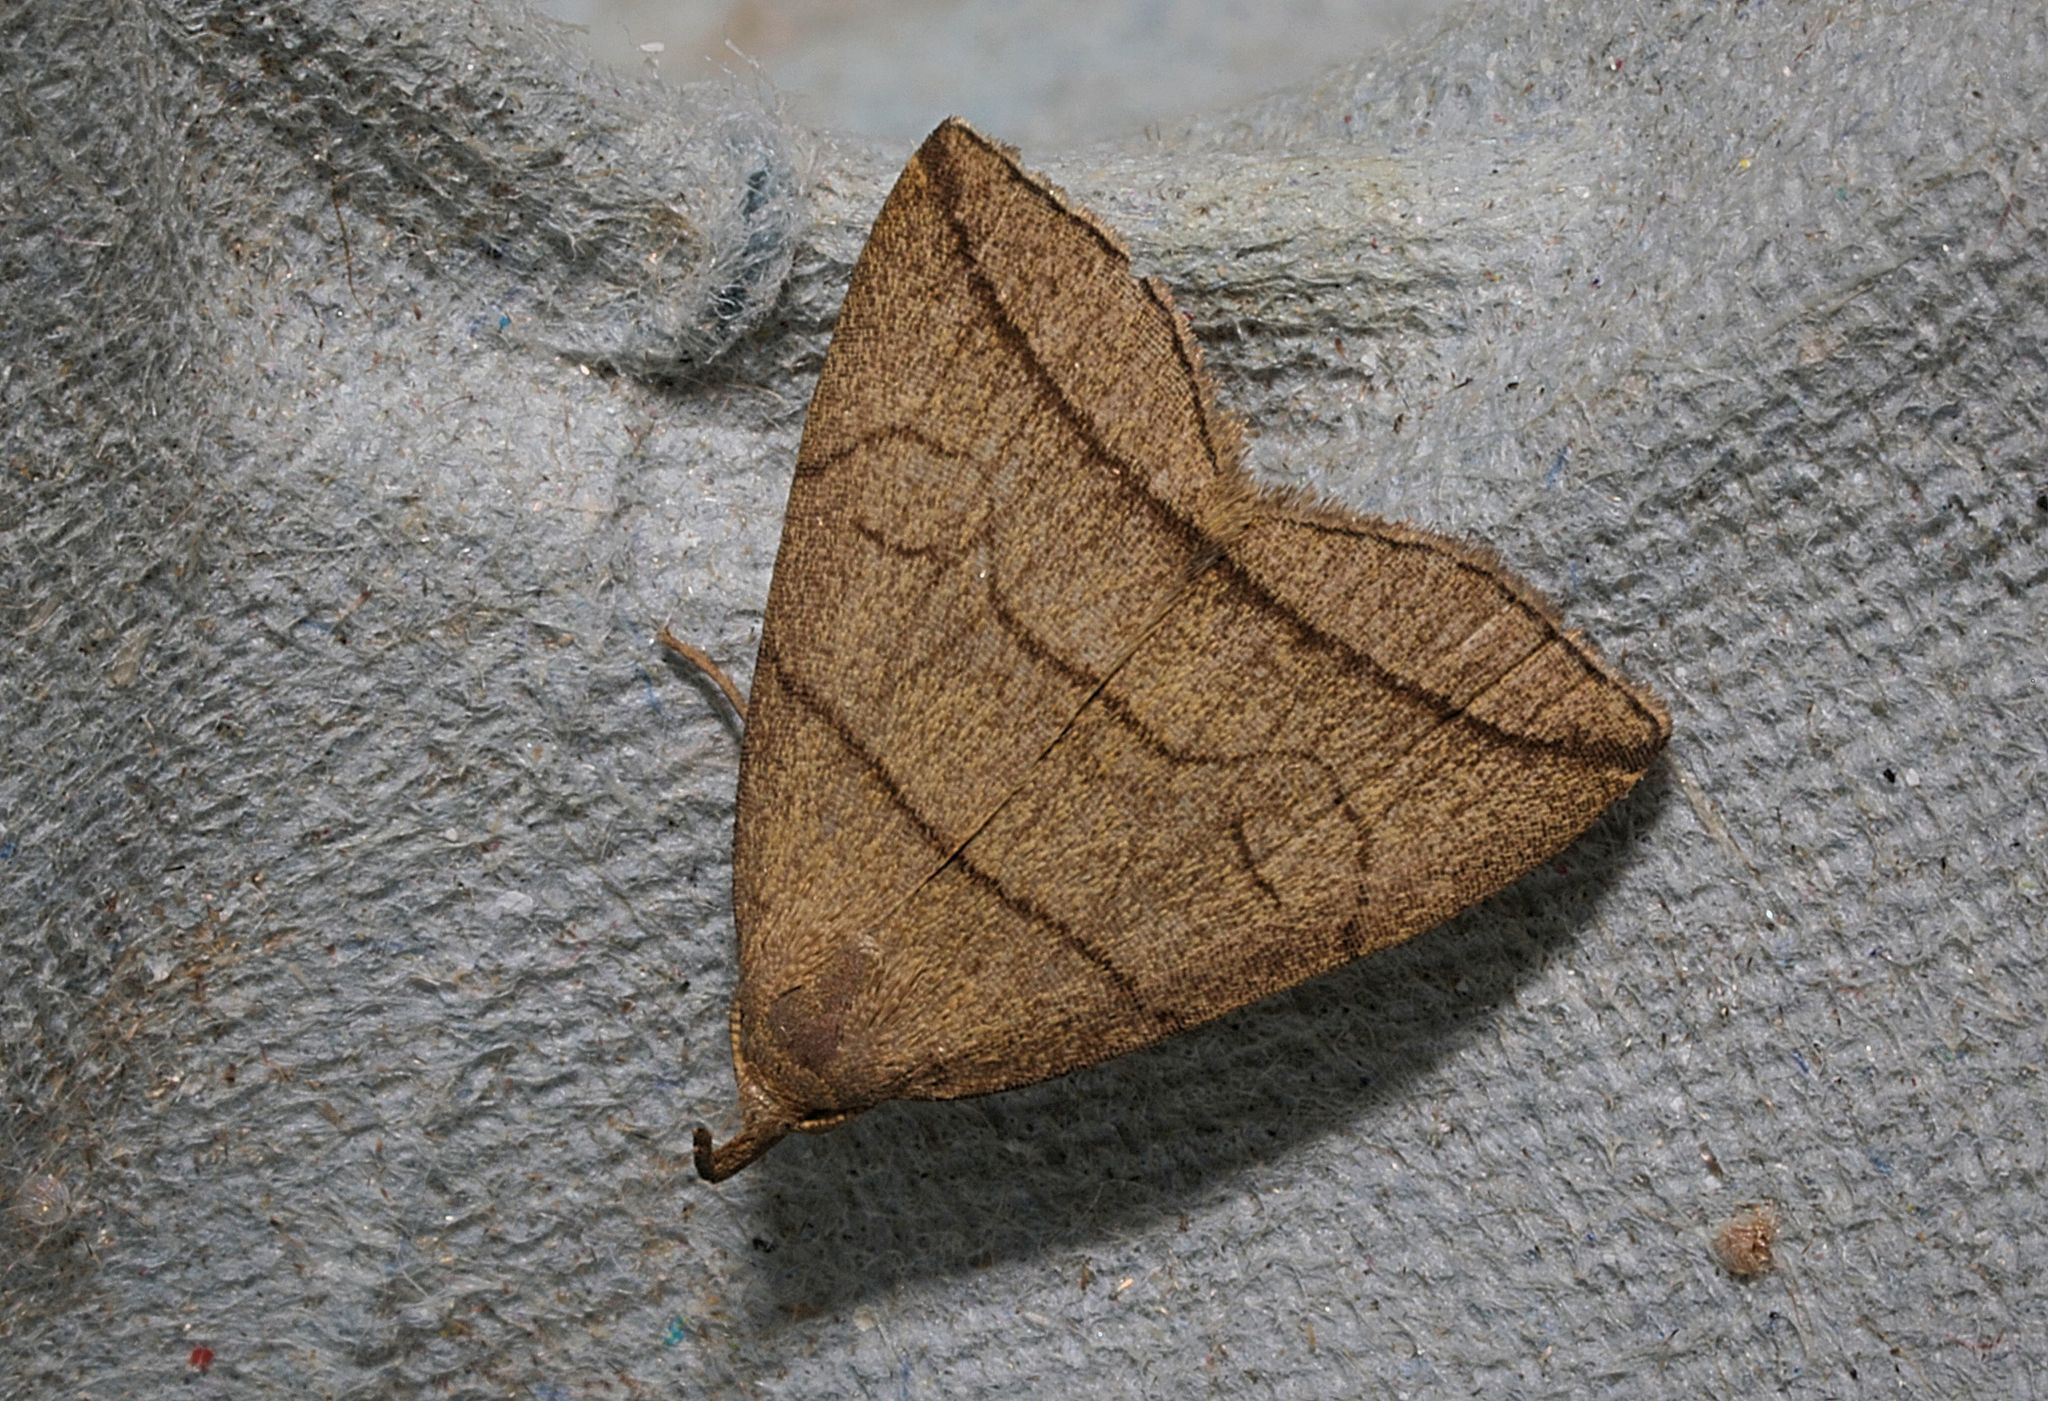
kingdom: Animalia
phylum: Arthropoda
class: Insecta
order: Lepidoptera
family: Erebidae
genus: Herminia
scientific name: Herminia grisealis
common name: Small fan-foot
